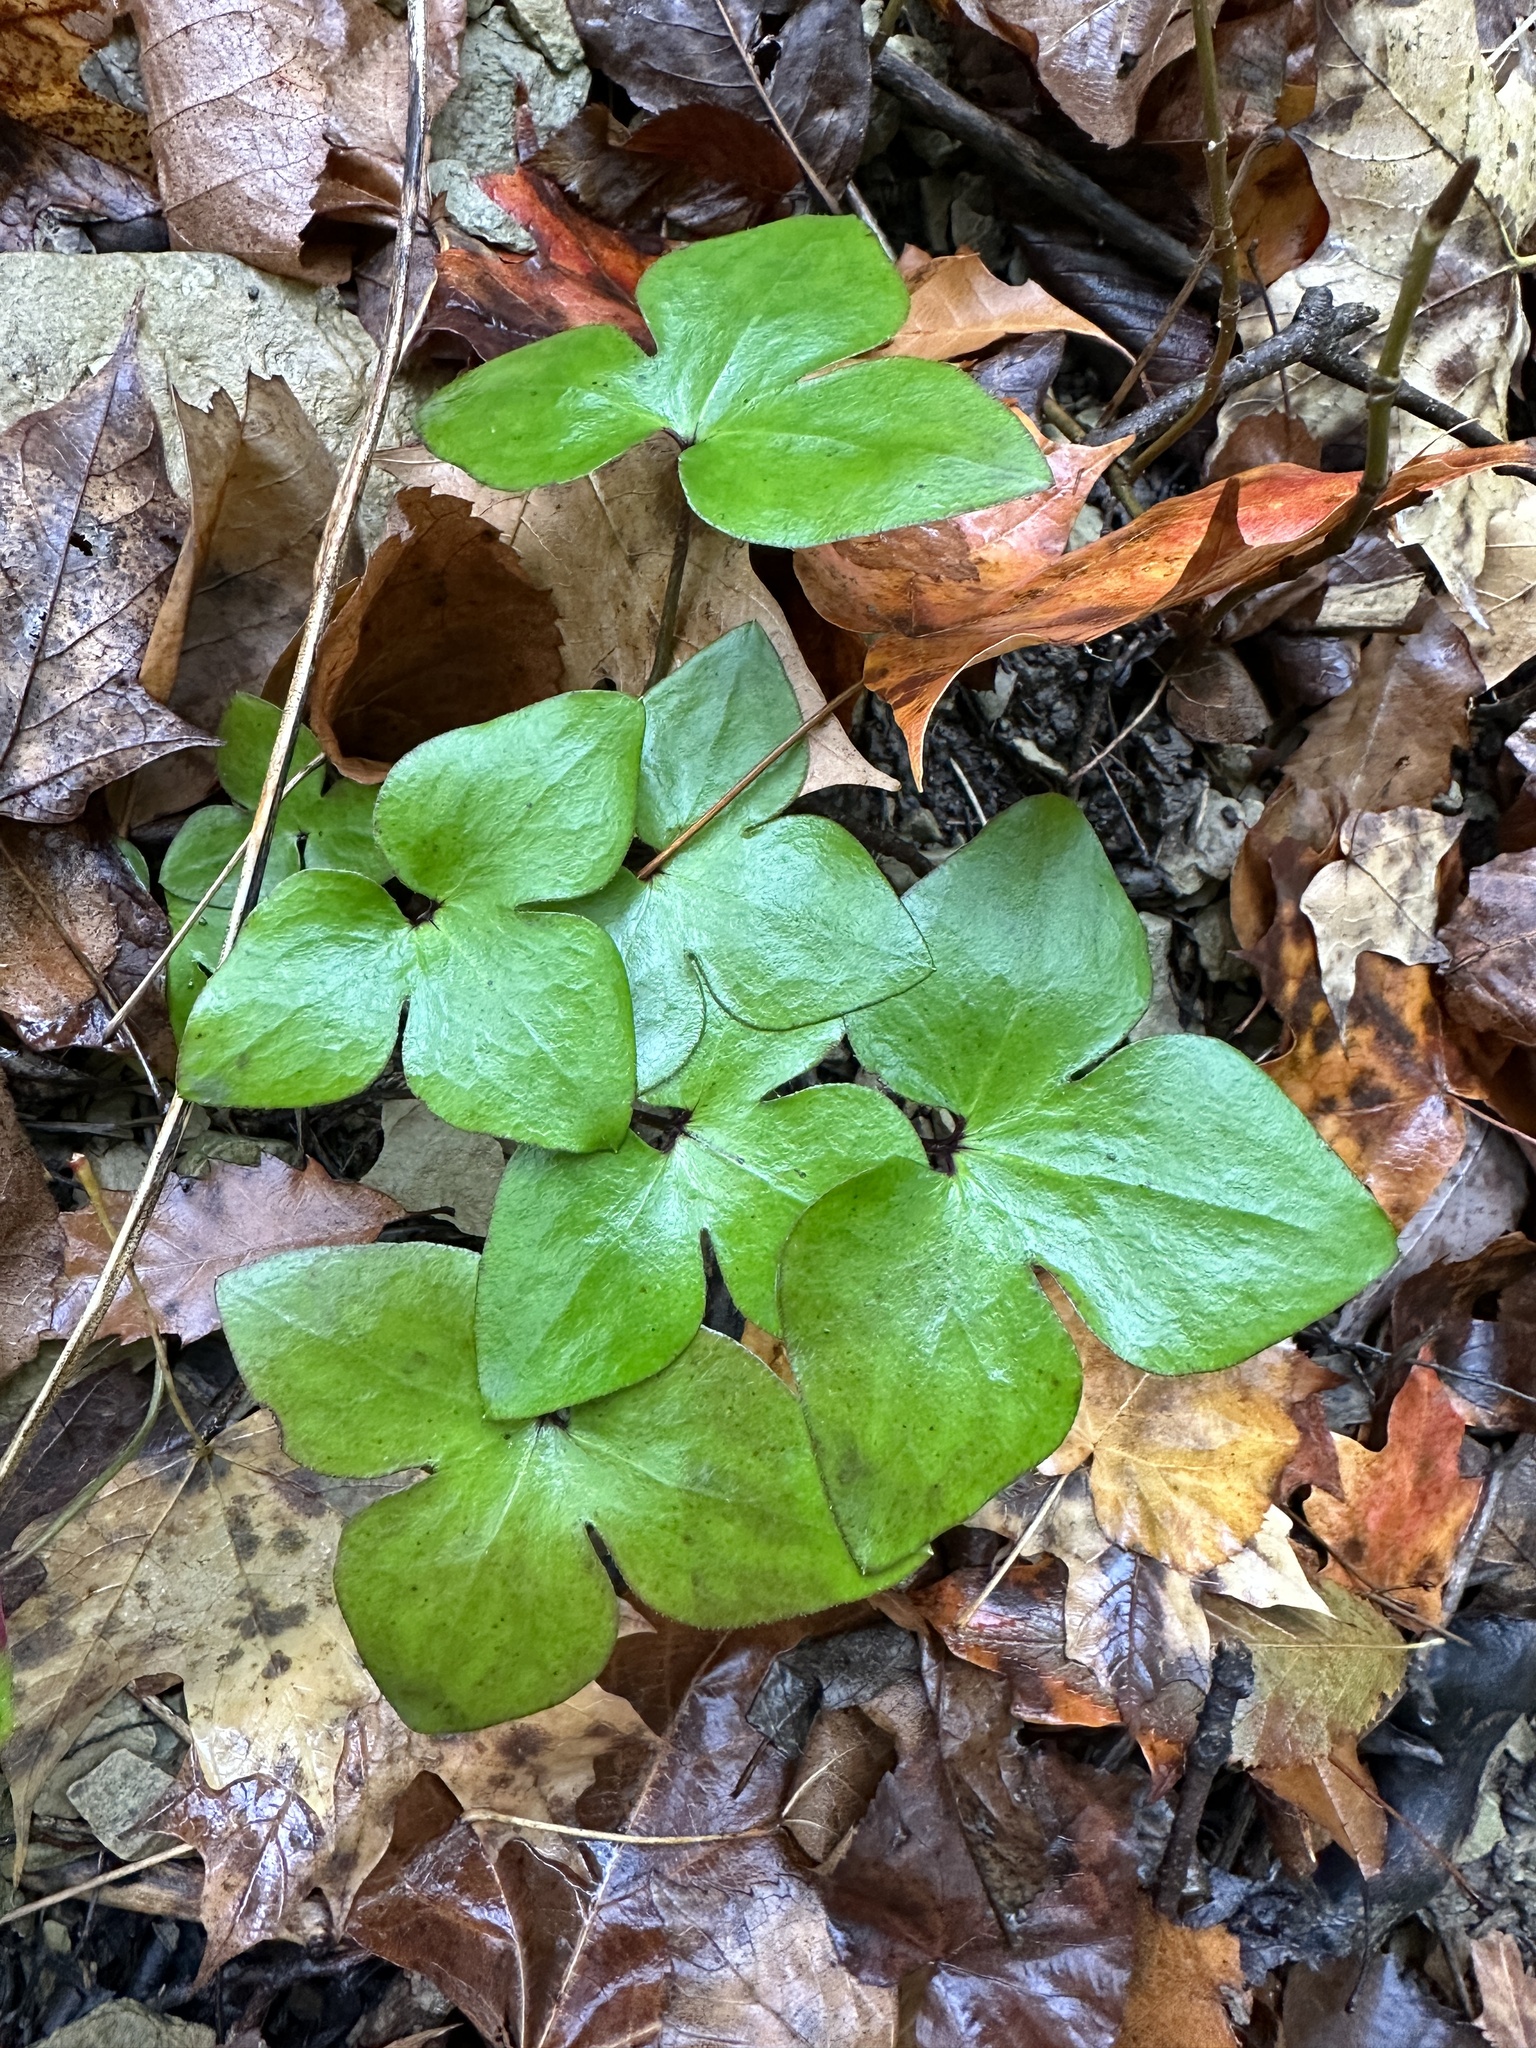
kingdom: Plantae
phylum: Tracheophyta
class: Magnoliopsida
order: Ranunculales
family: Ranunculaceae
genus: Hepatica
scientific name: Hepatica acutiloba
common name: Sharp-lobed hepatica
